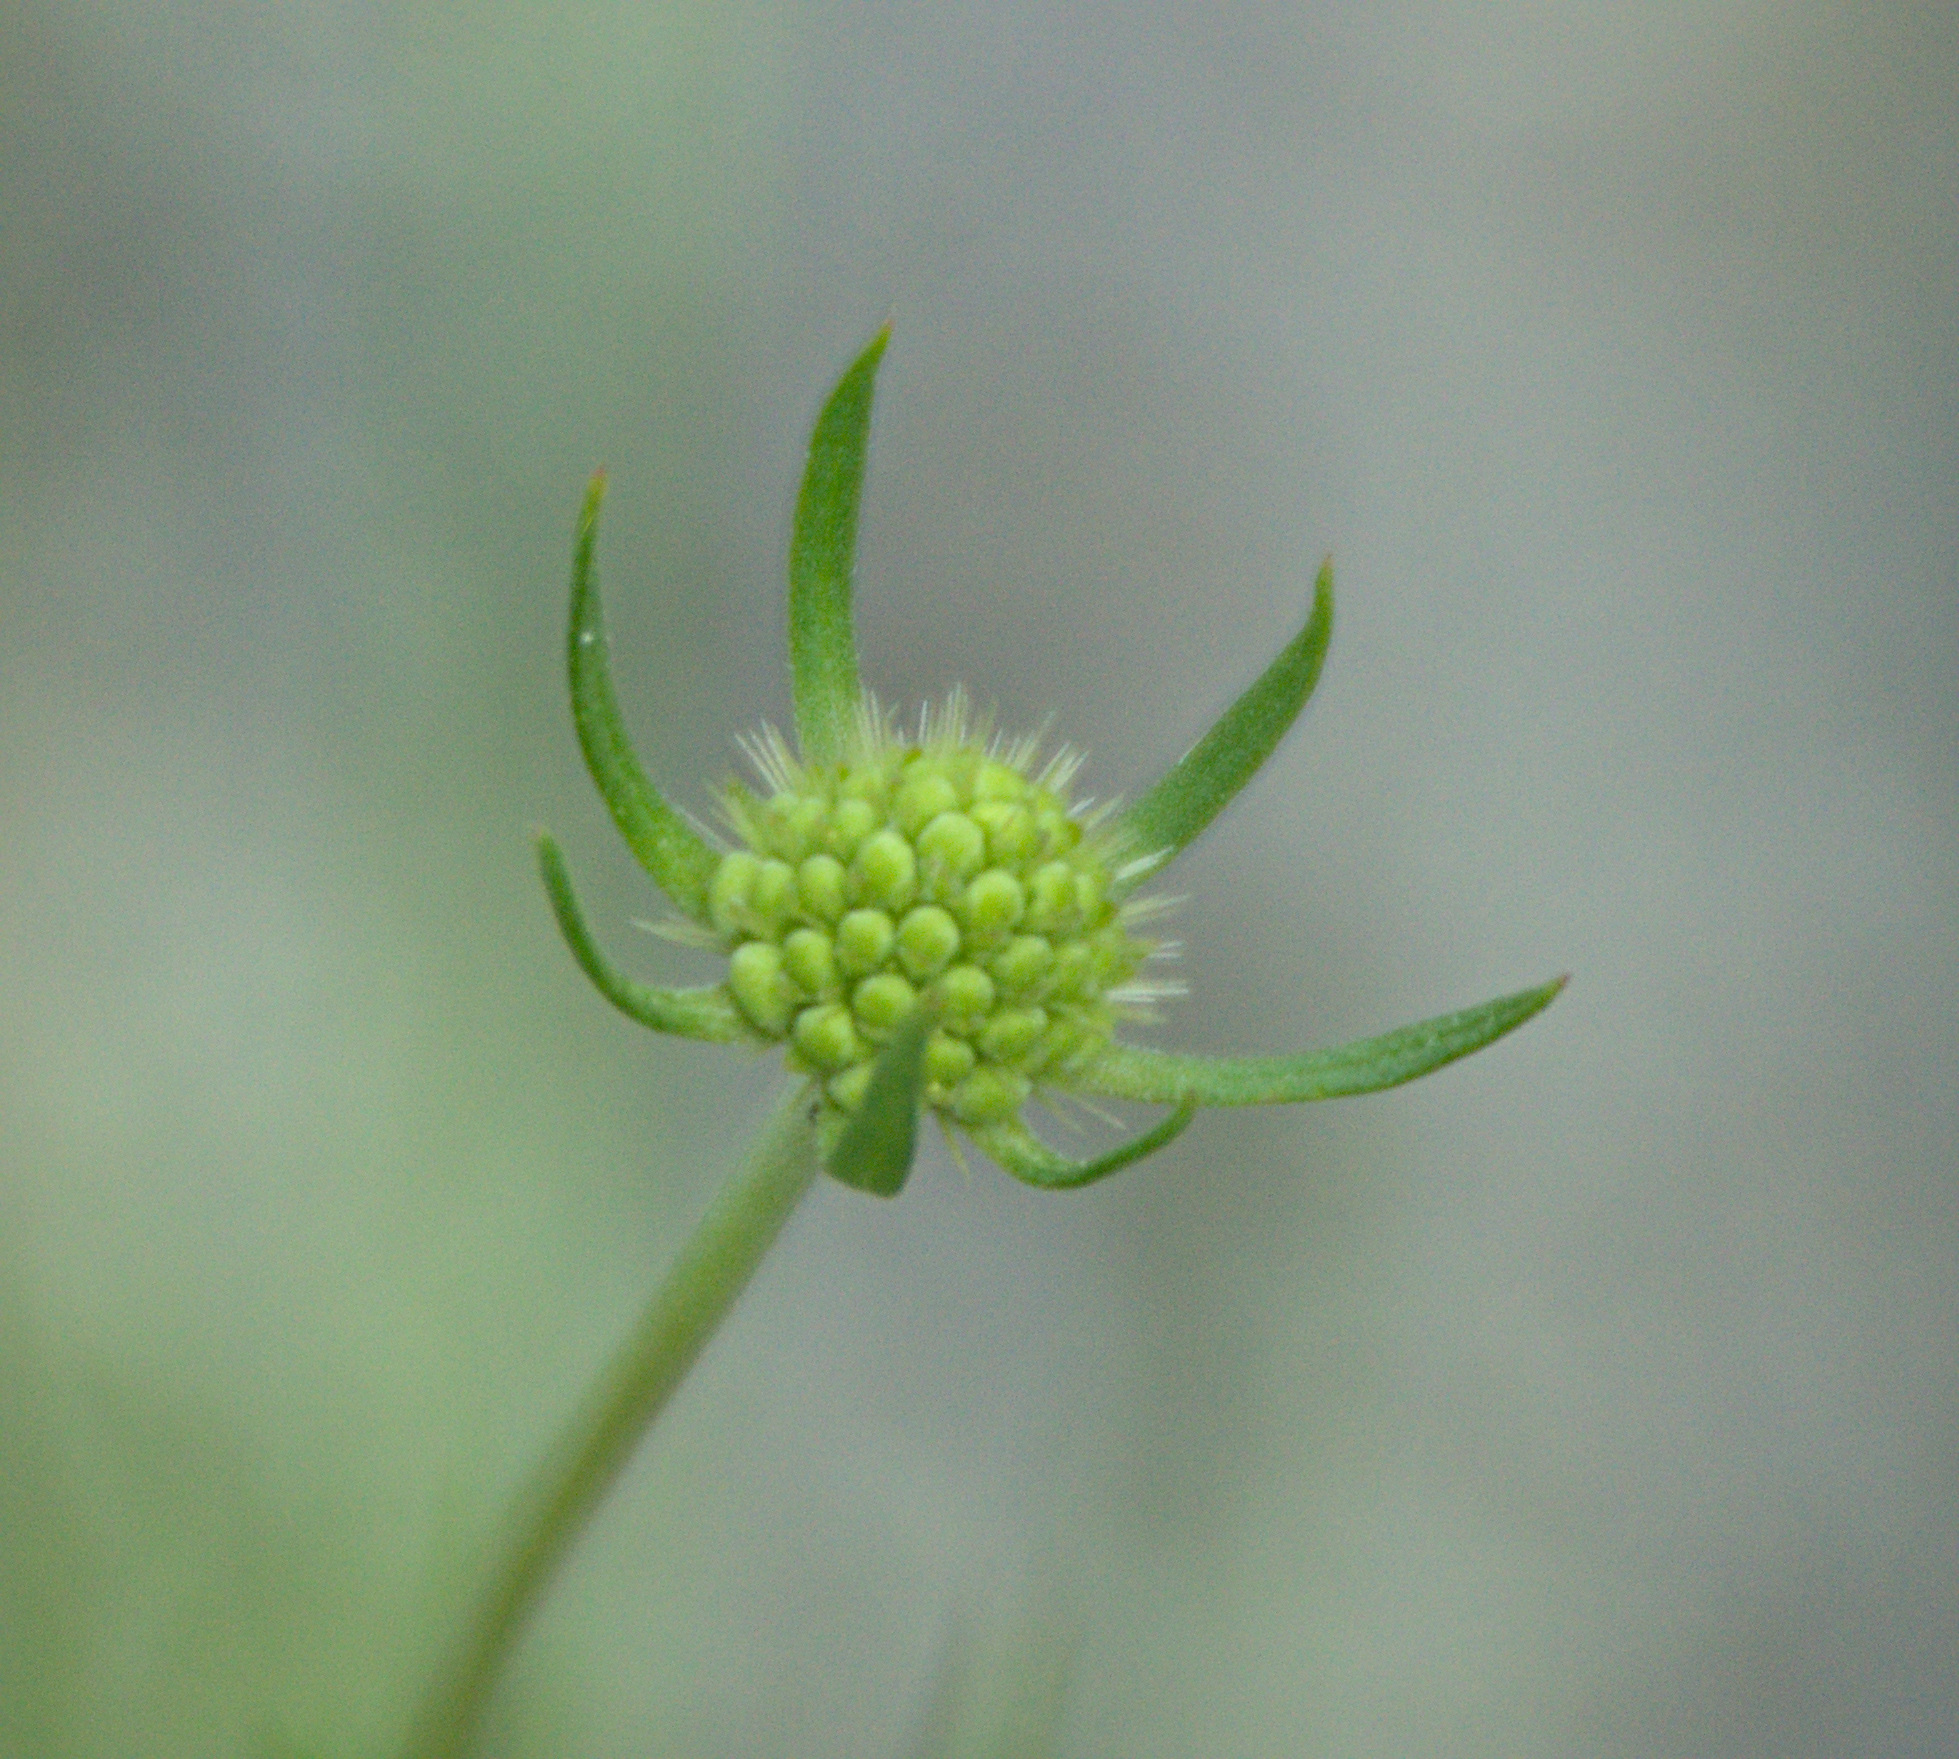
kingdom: Plantae
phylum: Tracheophyta
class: Magnoliopsida
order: Dipsacales
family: Caprifoliaceae
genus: Scabiosa
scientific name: Scabiosa ochroleuca
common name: Cream pincushions
